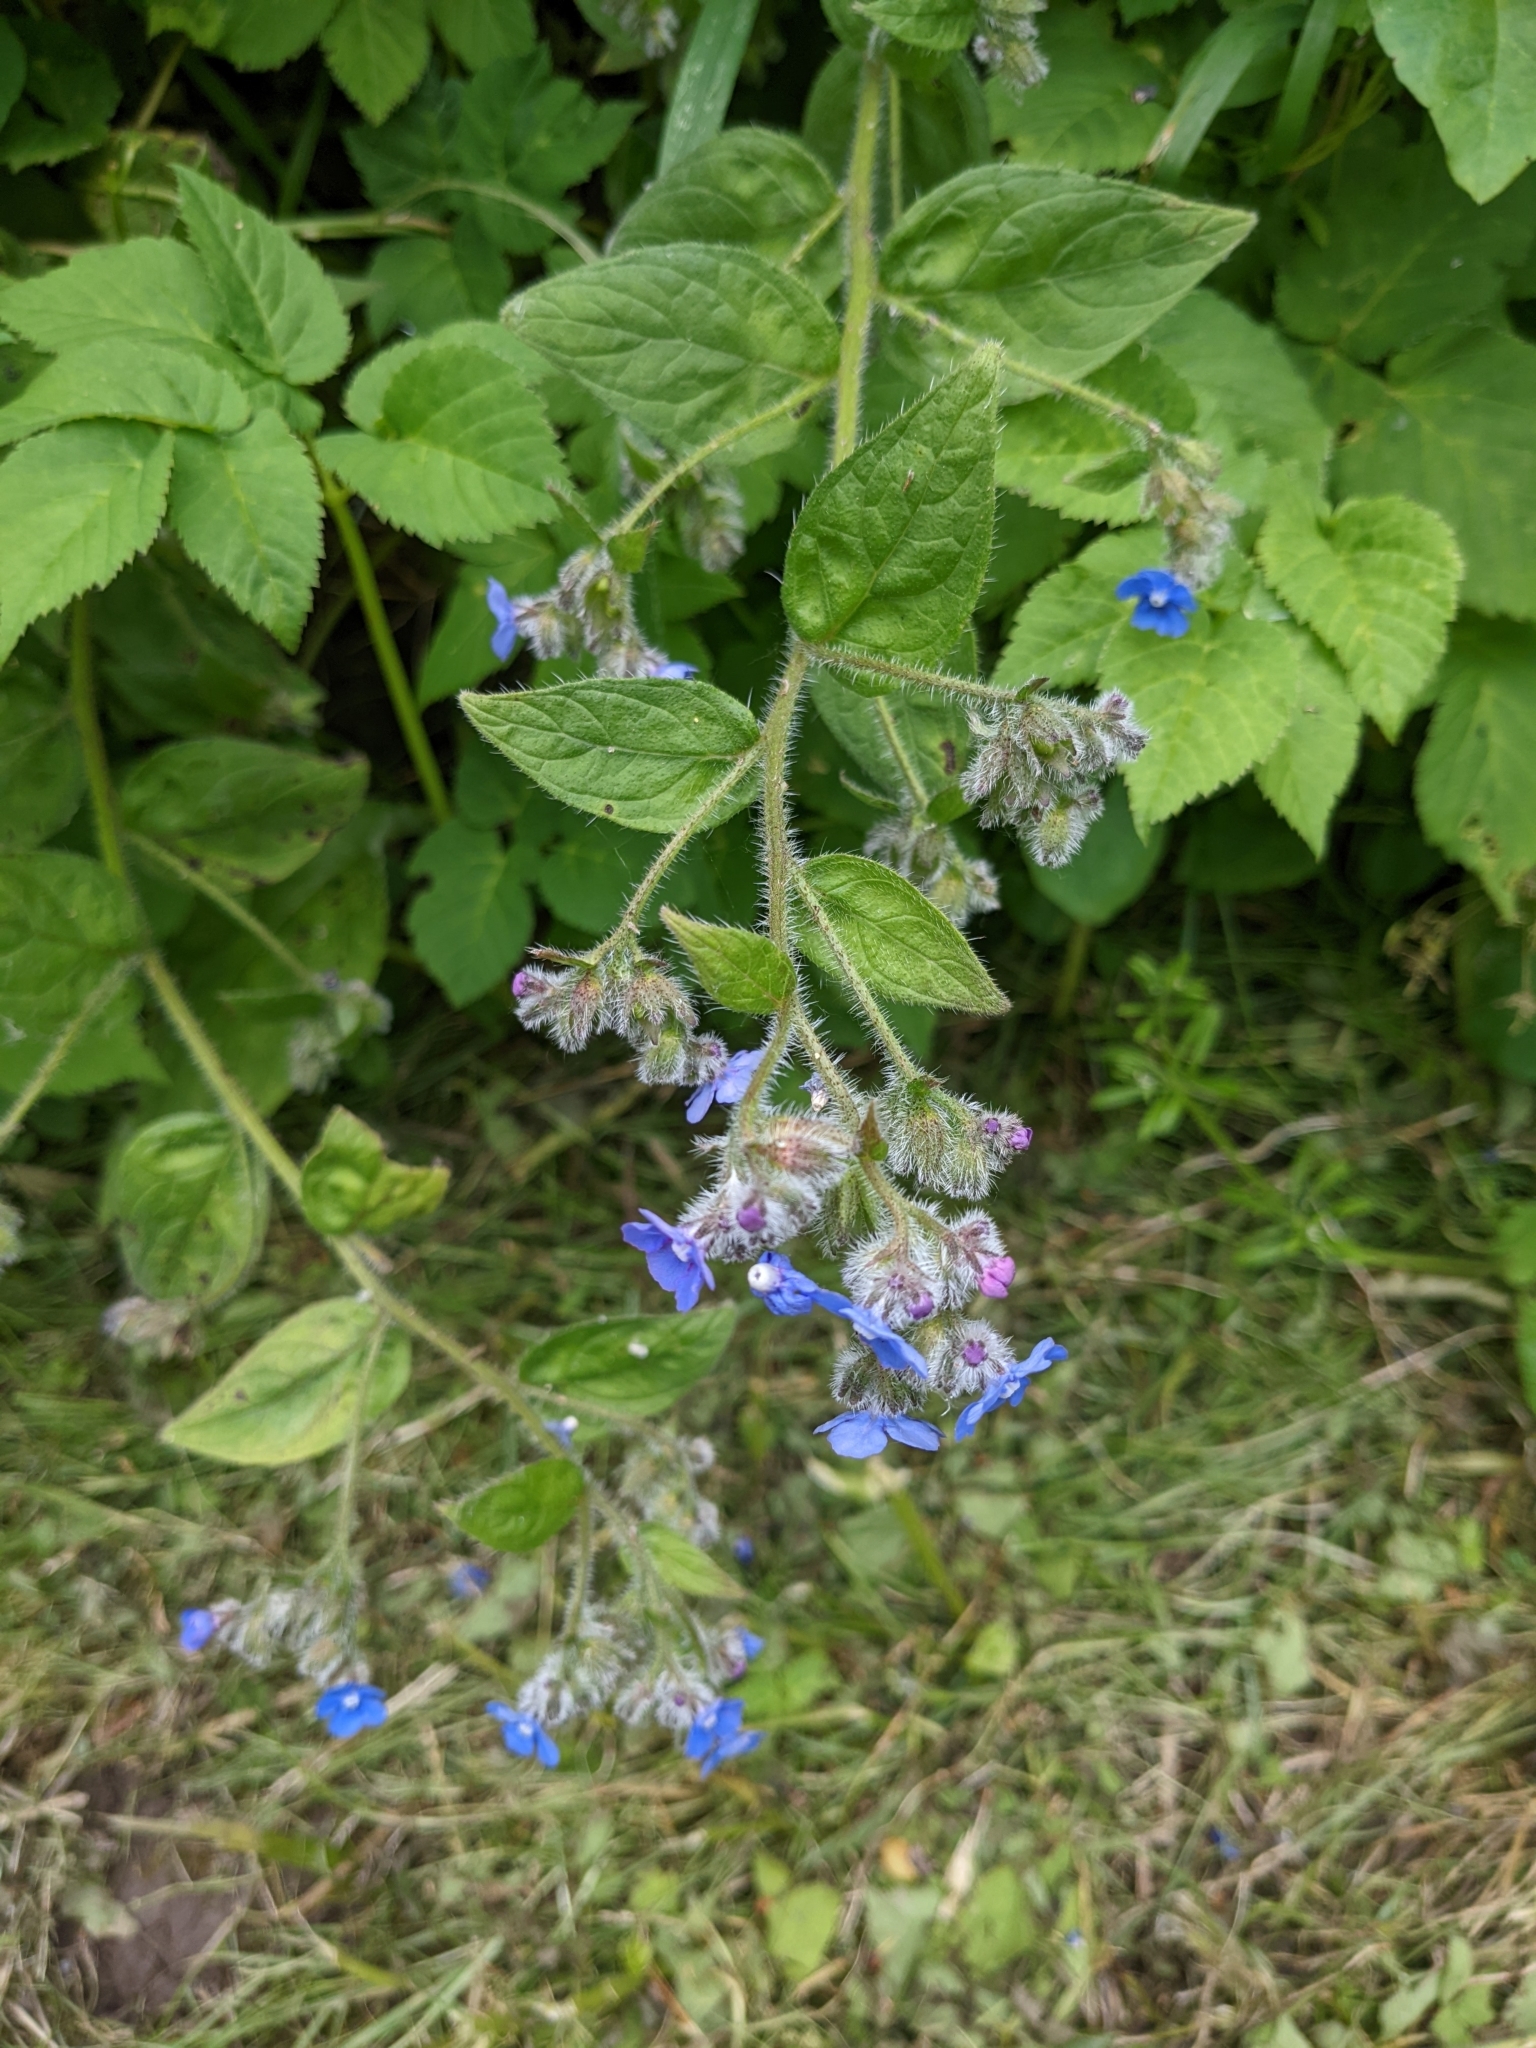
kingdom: Plantae
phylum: Tracheophyta
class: Magnoliopsida
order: Boraginales
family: Boraginaceae
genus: Pentaglottis
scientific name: Pentaglottis sempervirens
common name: Green alkanet
